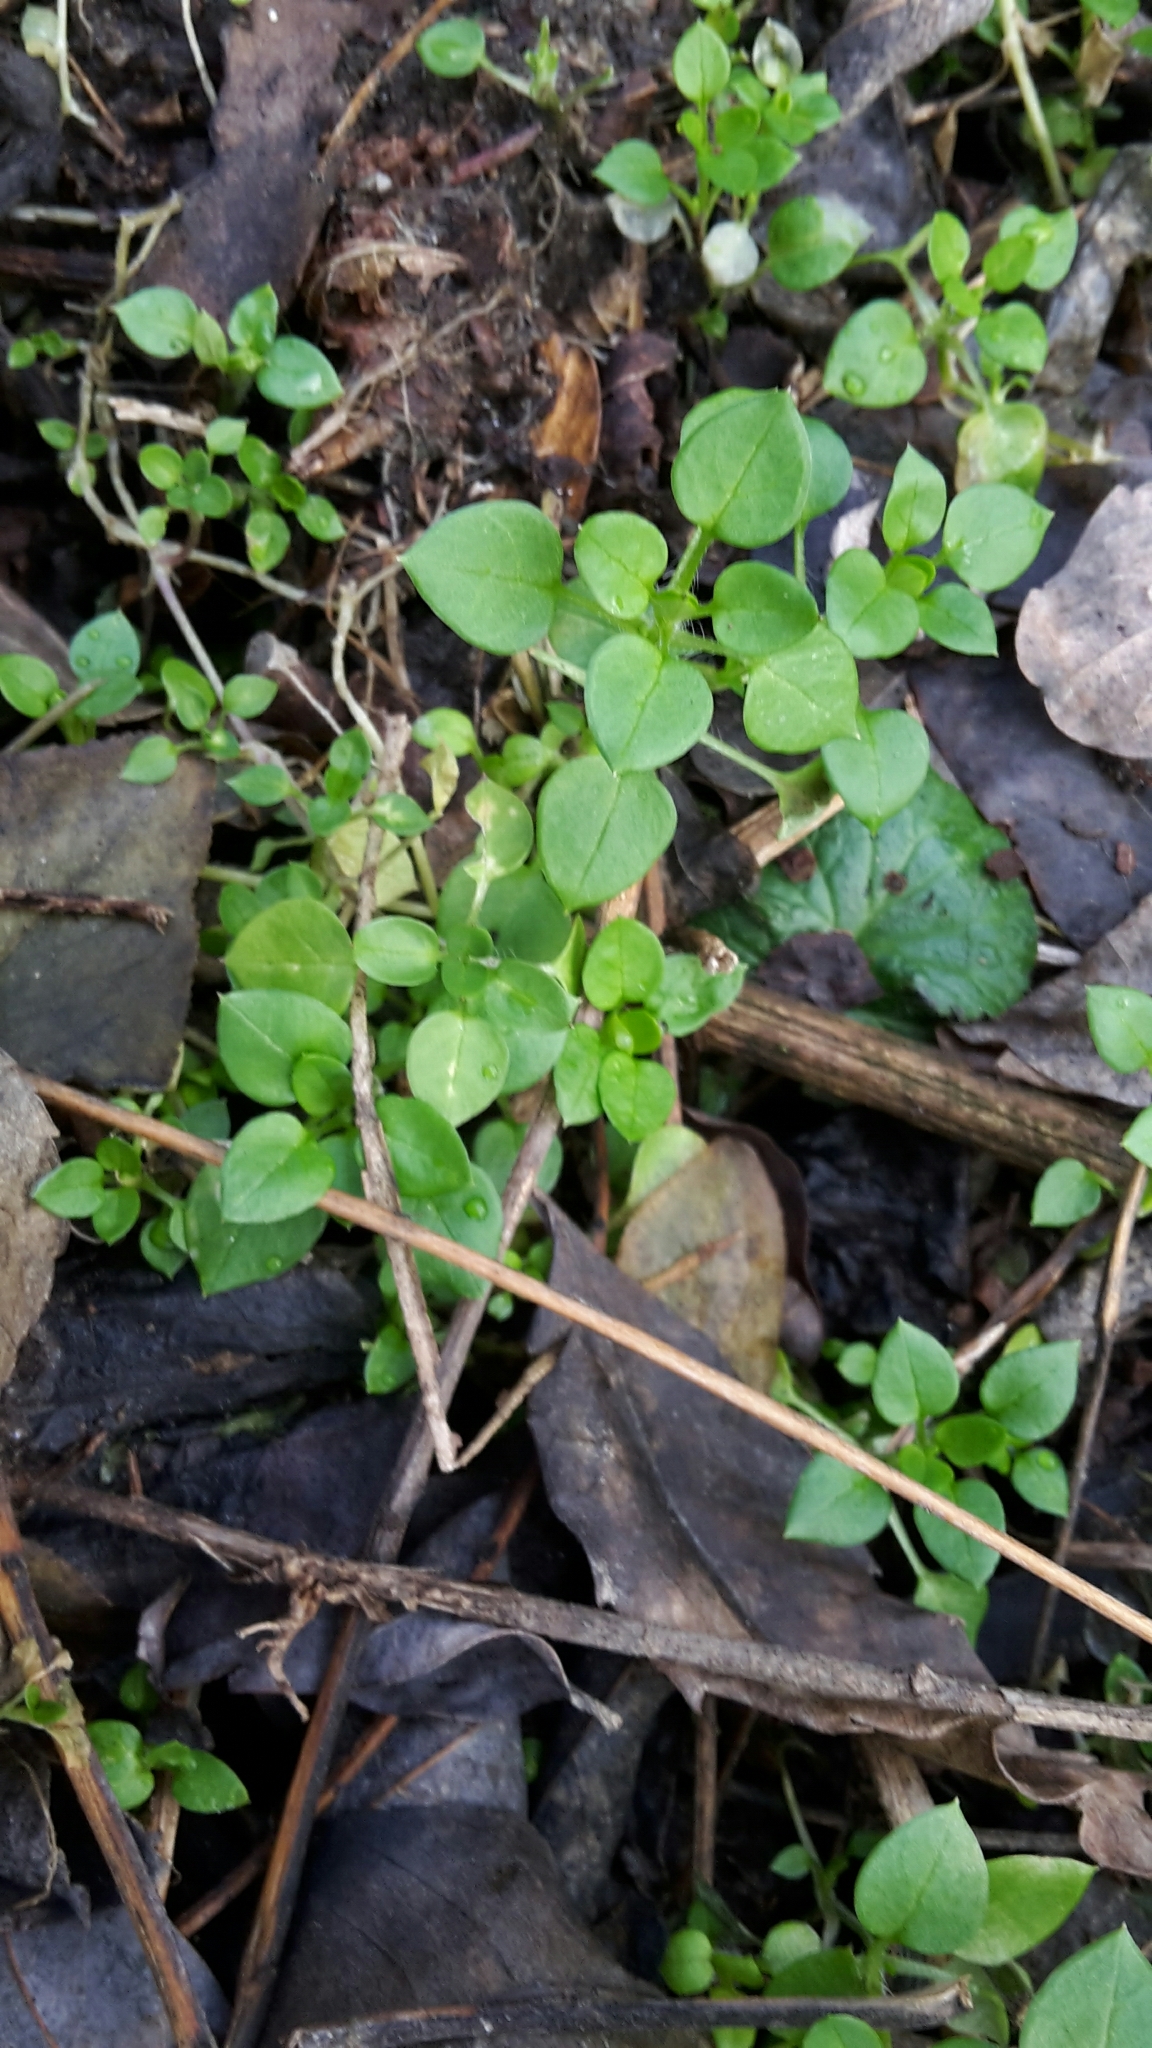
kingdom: Plantae
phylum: Tracheophyta
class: Magnoliopsida
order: Caryophyllales
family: Caryophyllaceae
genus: Stellaria
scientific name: Stellaria media
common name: Common chickweed
